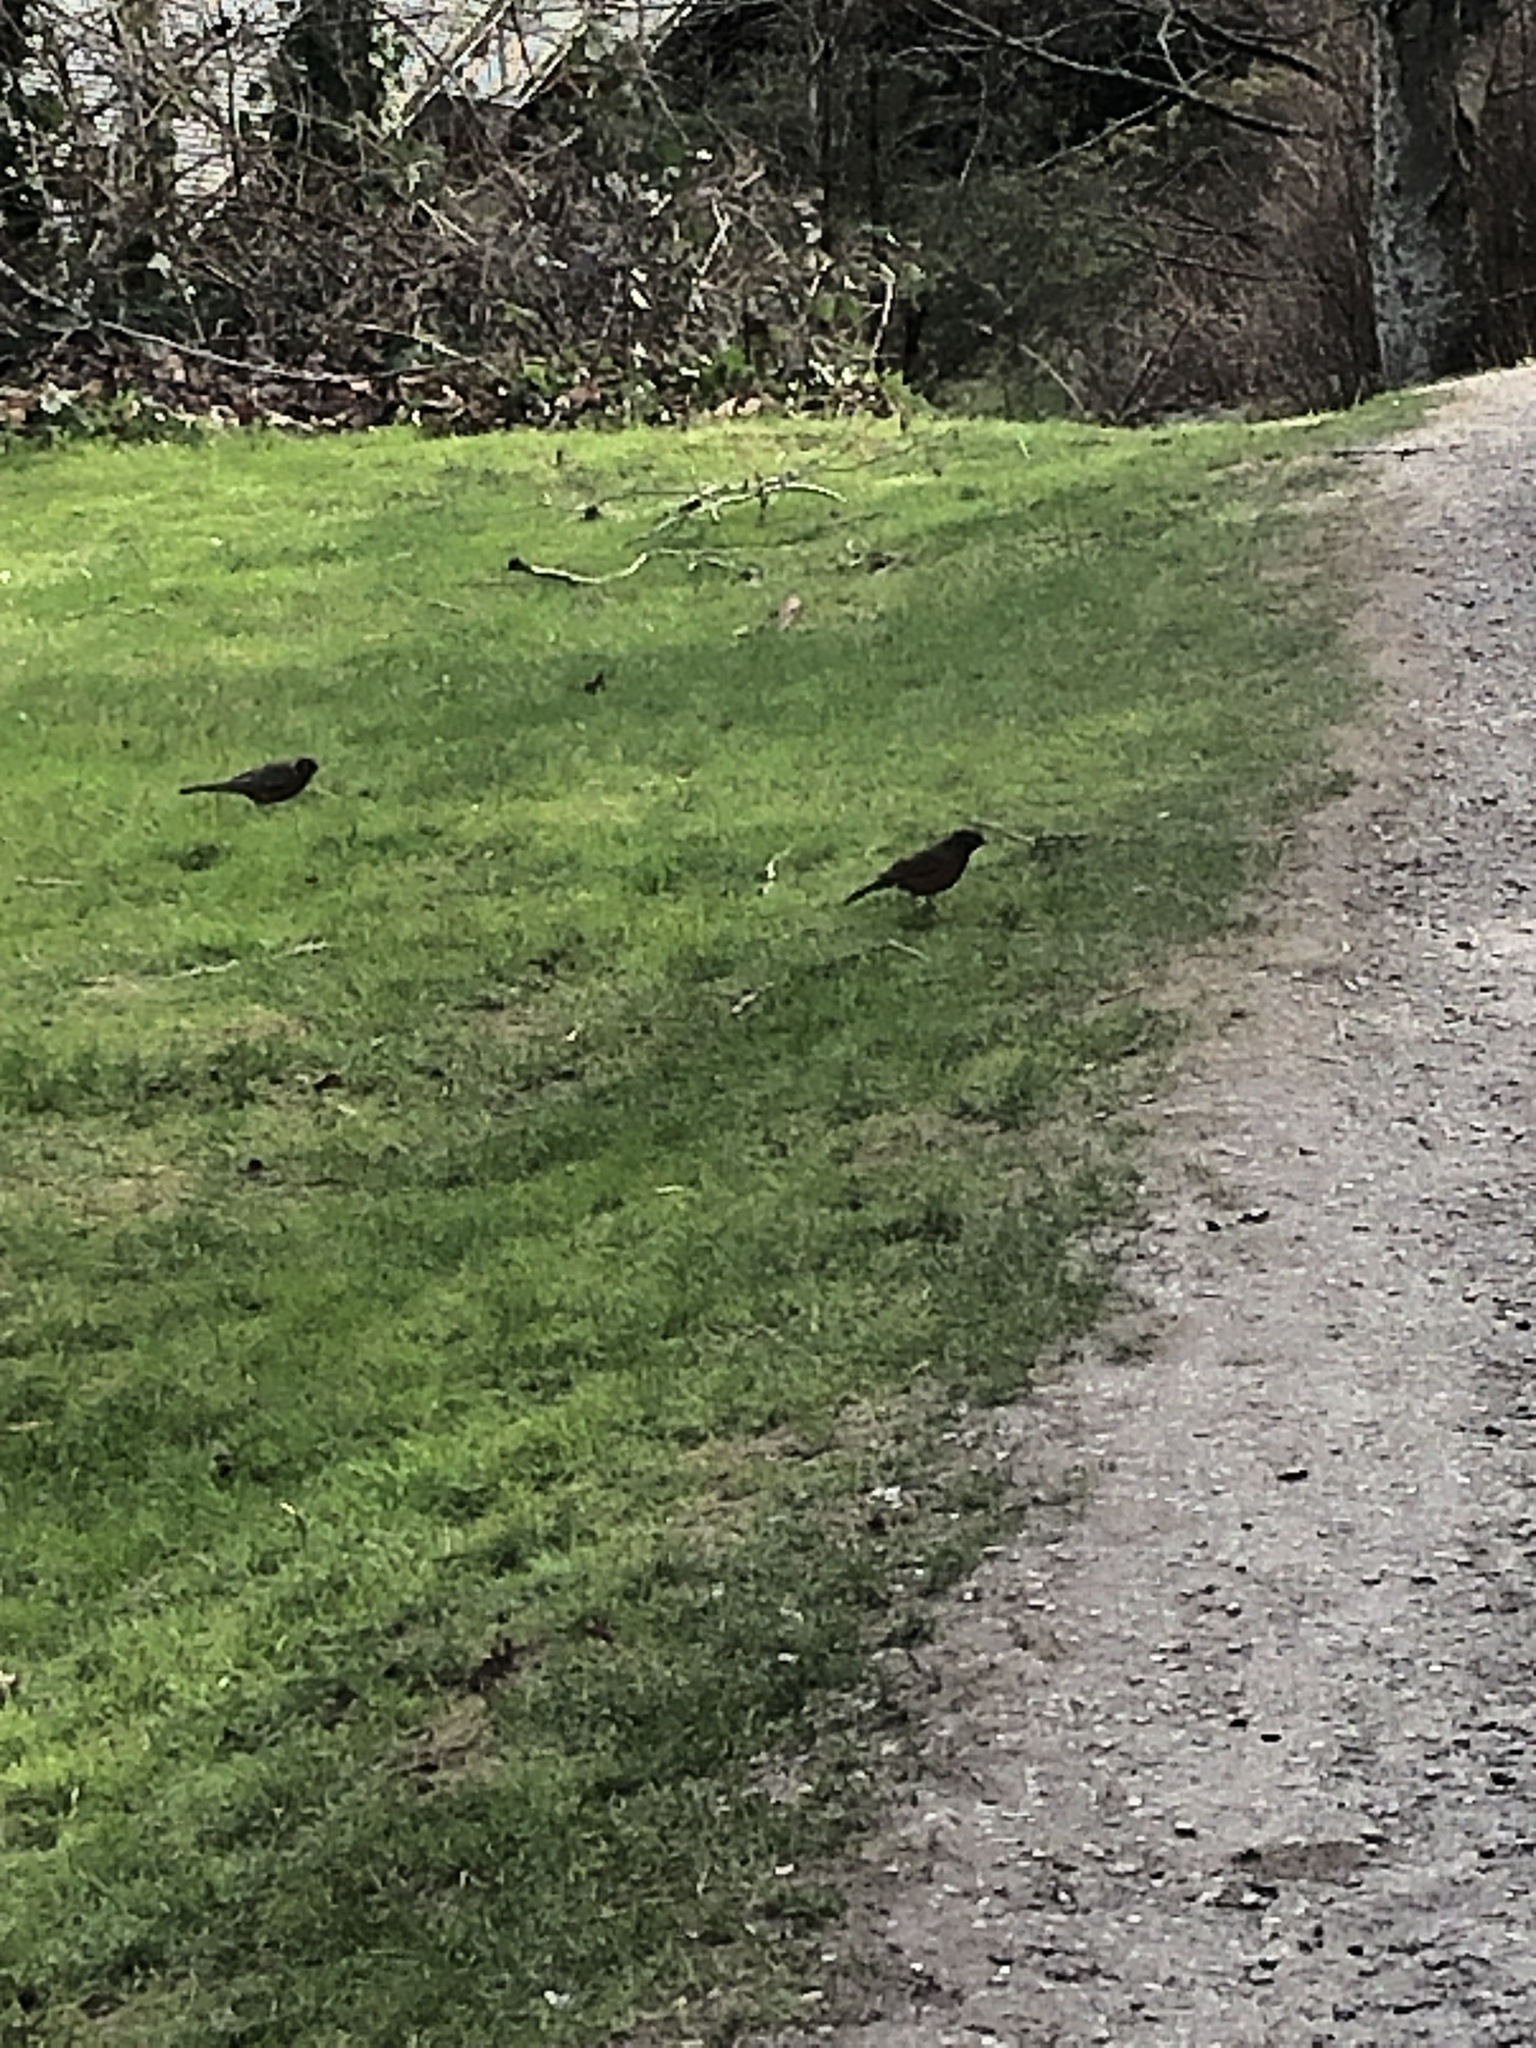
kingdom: Animalia
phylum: Chordata
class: Aves
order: Passeriformes
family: Turdidae
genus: Turdus
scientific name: Turdus migratorius
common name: American robin
